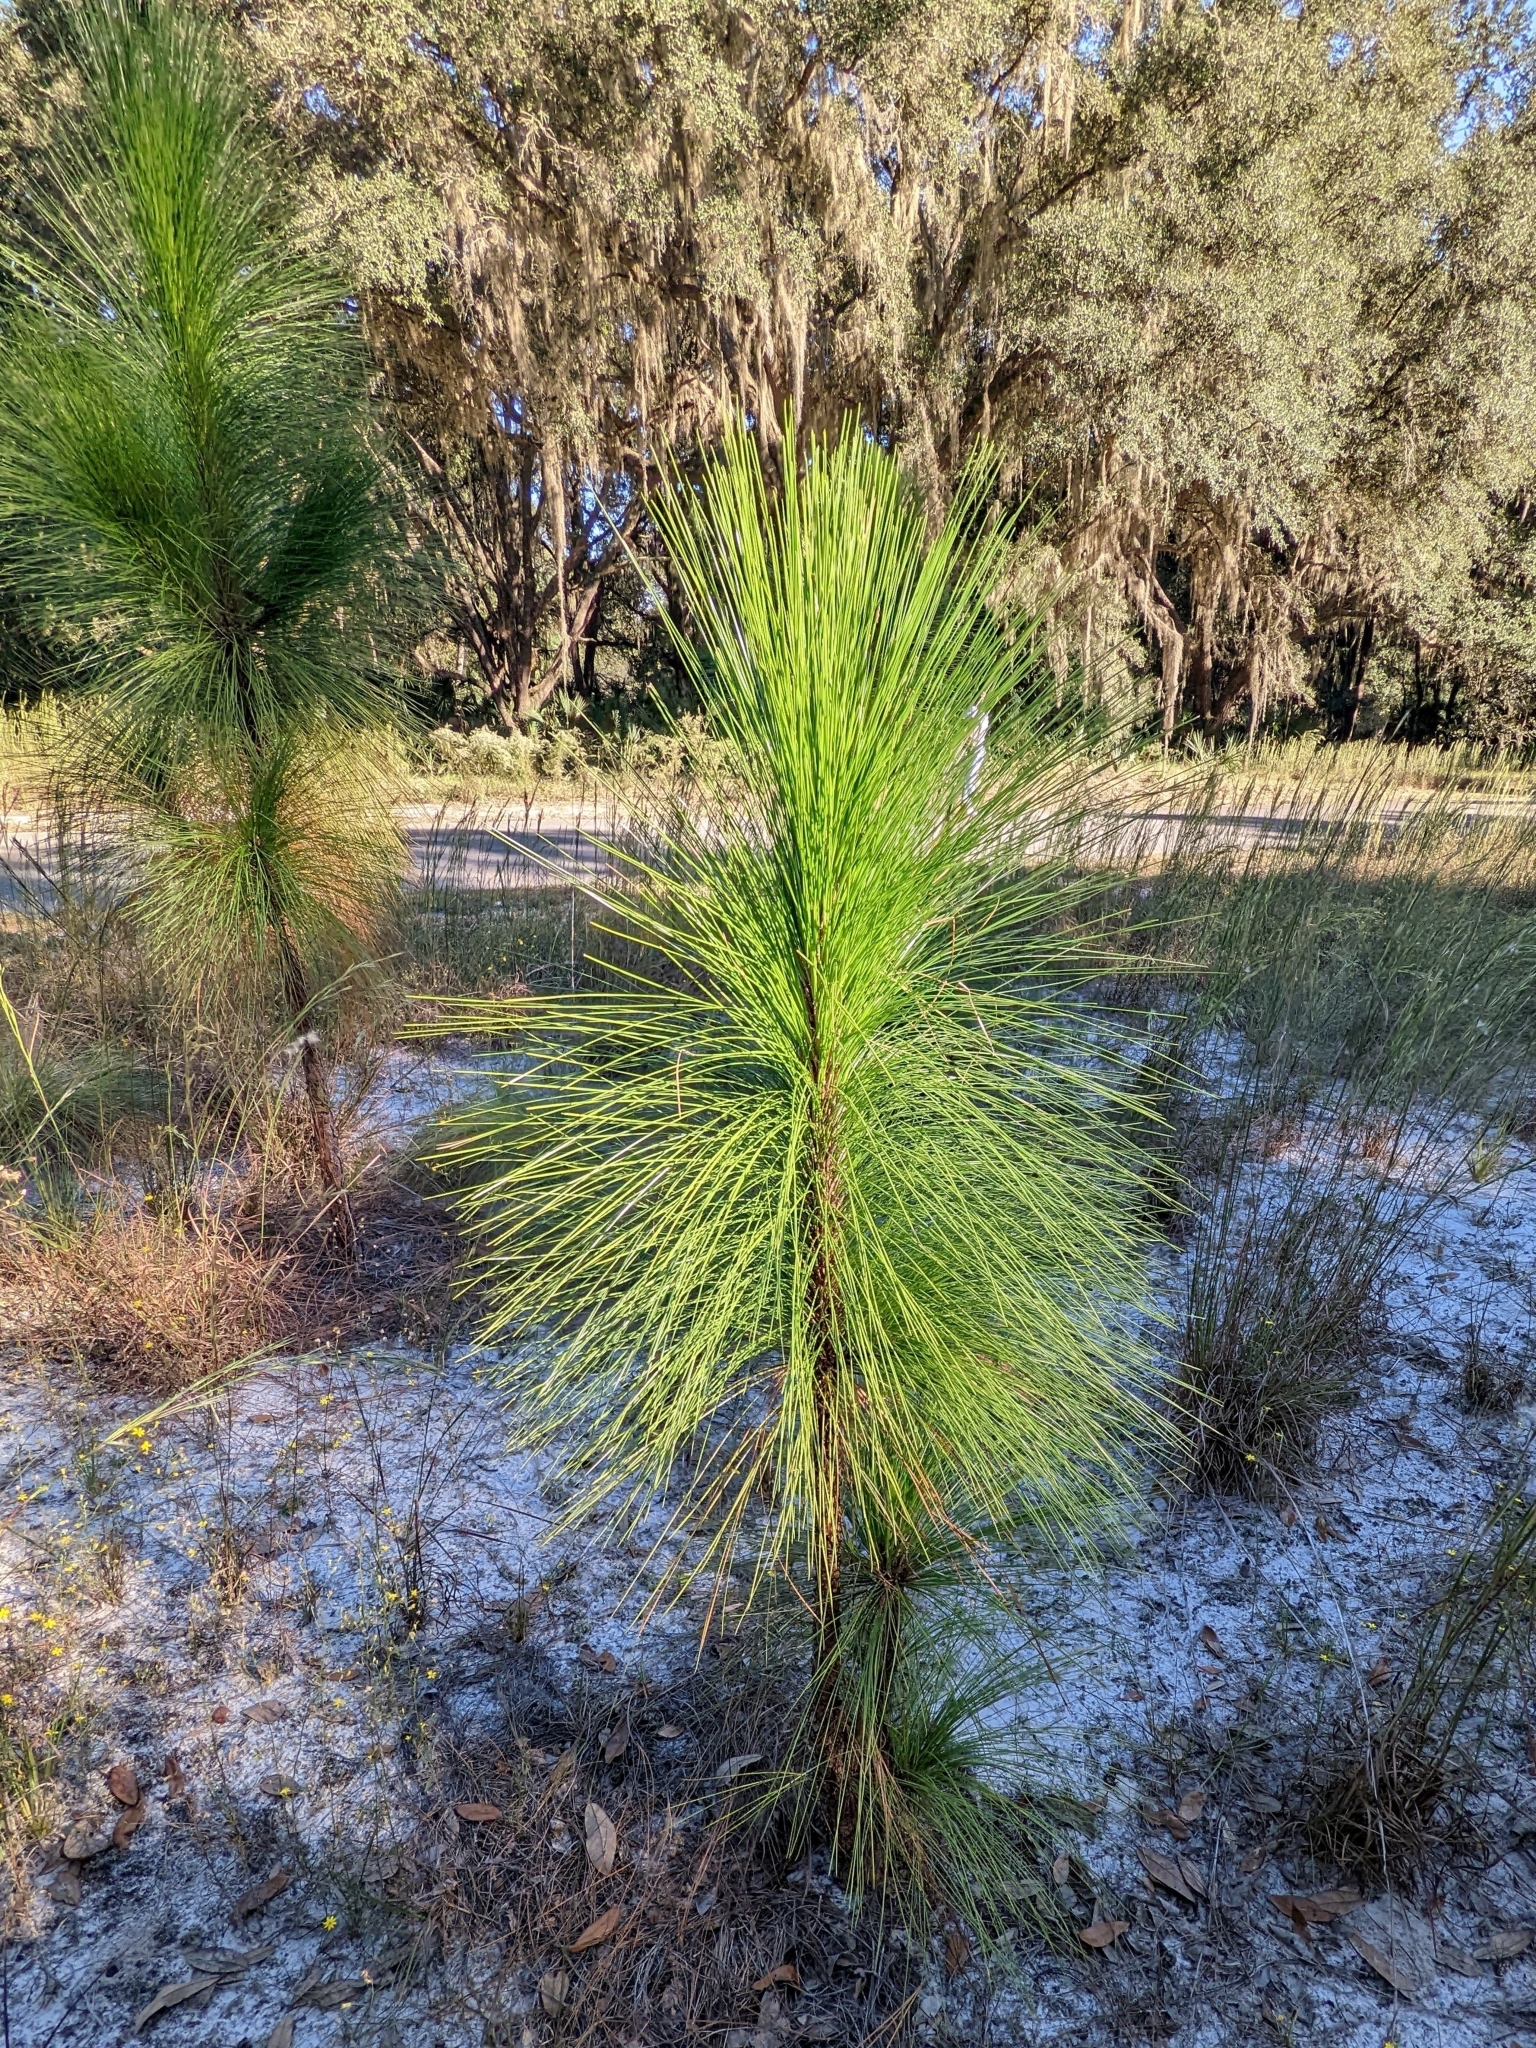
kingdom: Plantae
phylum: Tracheophyta
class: Pinopsida
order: Pinales
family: Pinaceae
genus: Pinus
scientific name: Pinus palustris
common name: Longleaf pine
